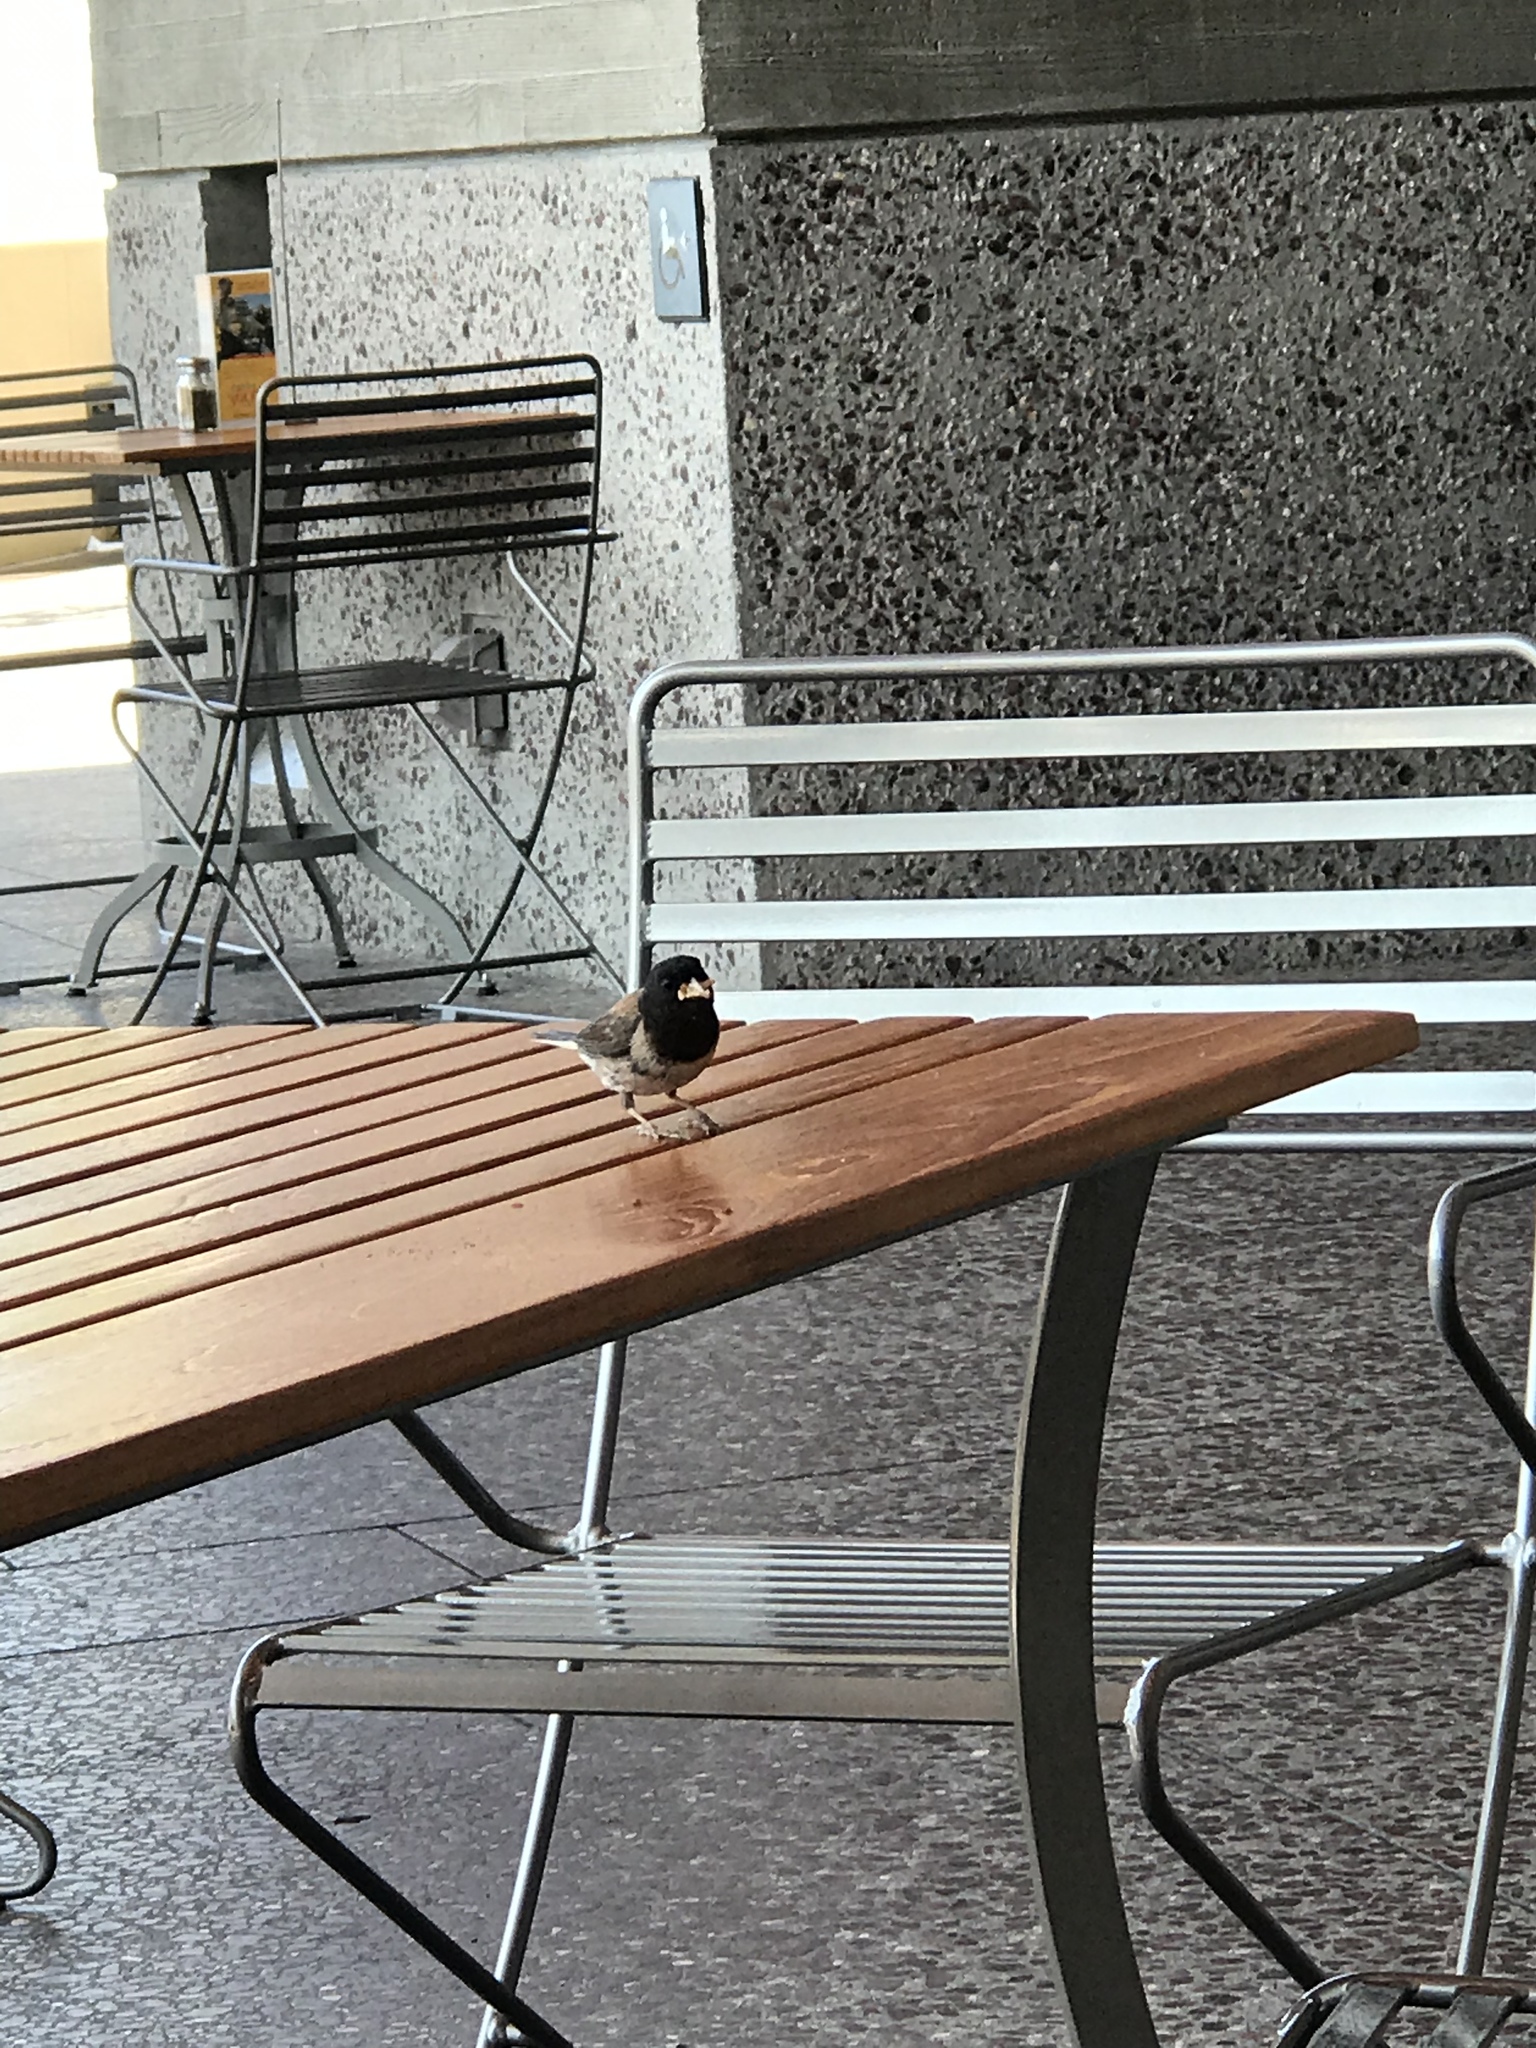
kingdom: Animalia
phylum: Chordata
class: Aves
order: Passeriformes
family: Passerellidae
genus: Junco
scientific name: Junco hyemalis
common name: Dark-eyed junco
